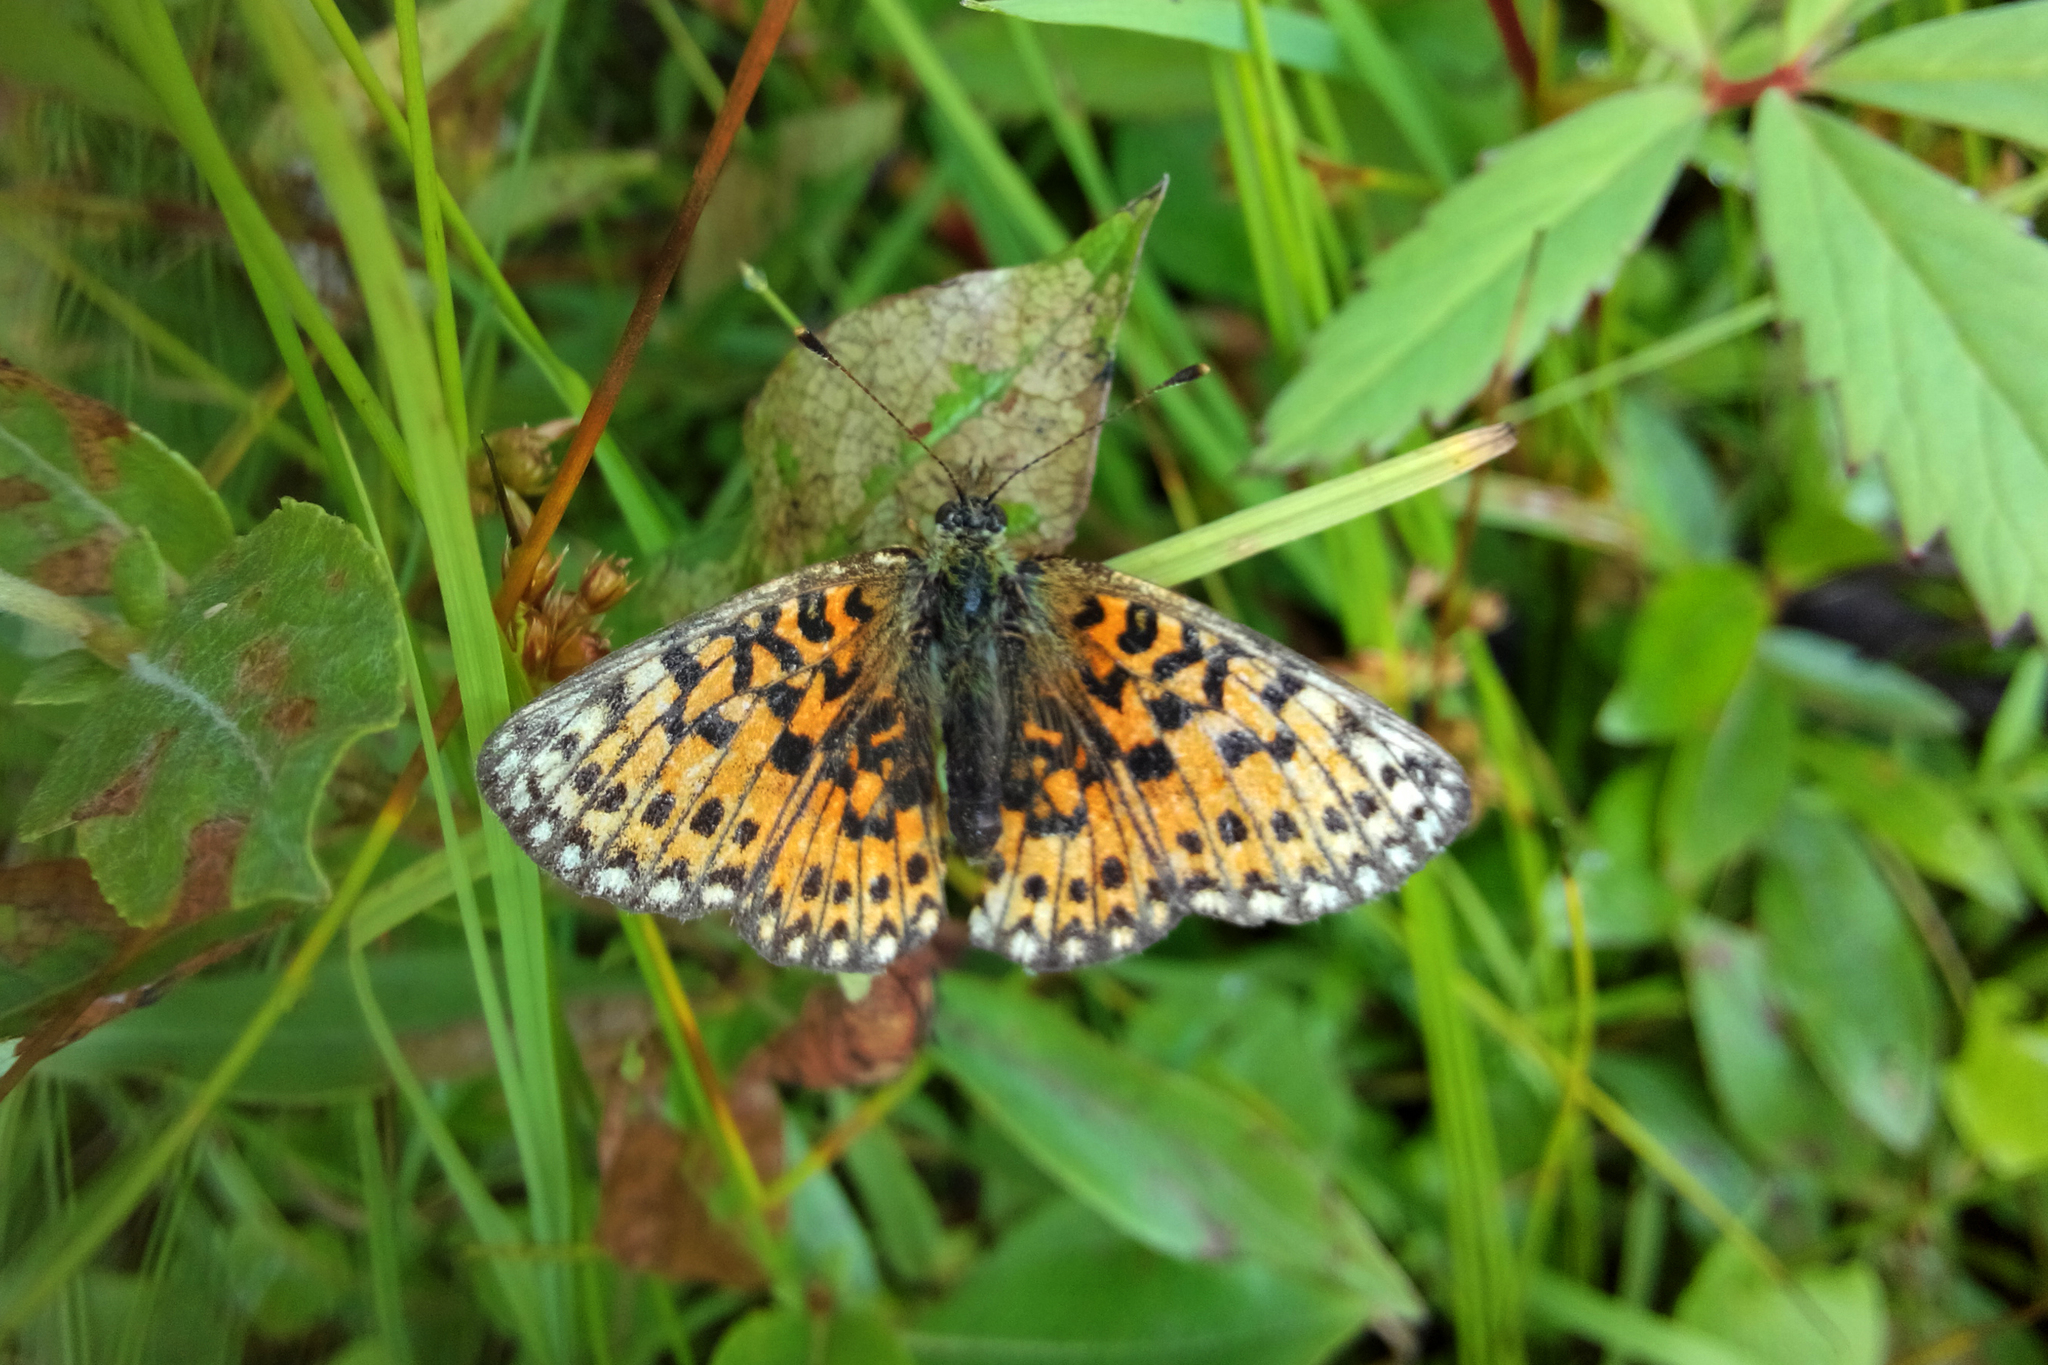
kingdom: Animalia
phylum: Arthropoda
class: Insecta
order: Lepidoptera
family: Nymphalidae
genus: Boloria
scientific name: Boloria selene
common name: Small pearl-bordered fritillary
